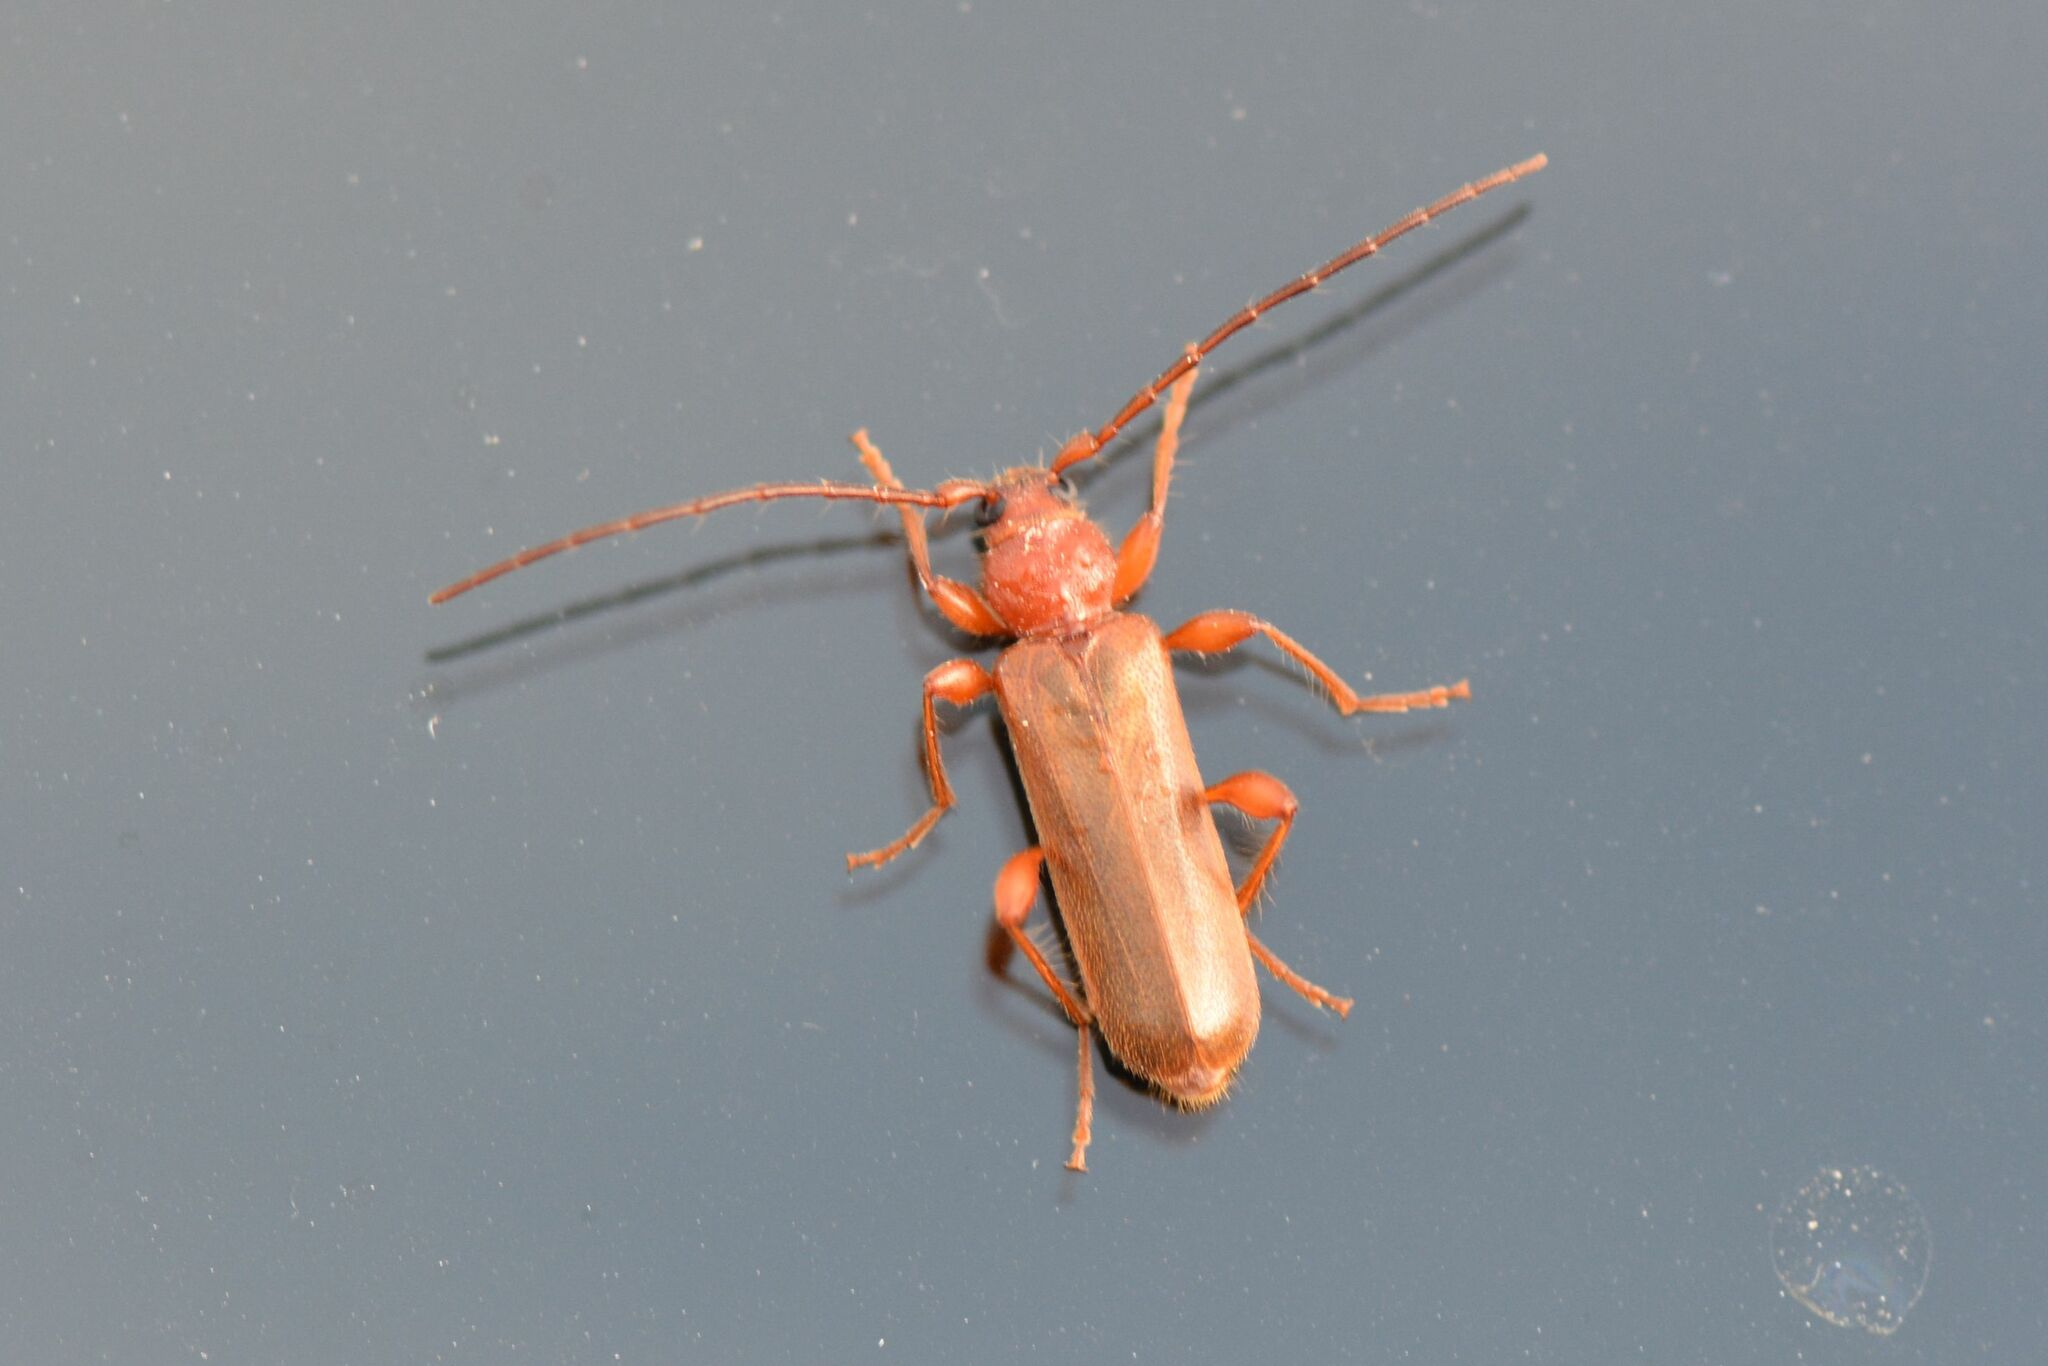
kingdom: Animalia
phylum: Arthropoda
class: Insecta
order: Coleoptera
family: Cerambycidae
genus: Phymatodes
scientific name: Phymatodes testaceus
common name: Long-horned beetle
